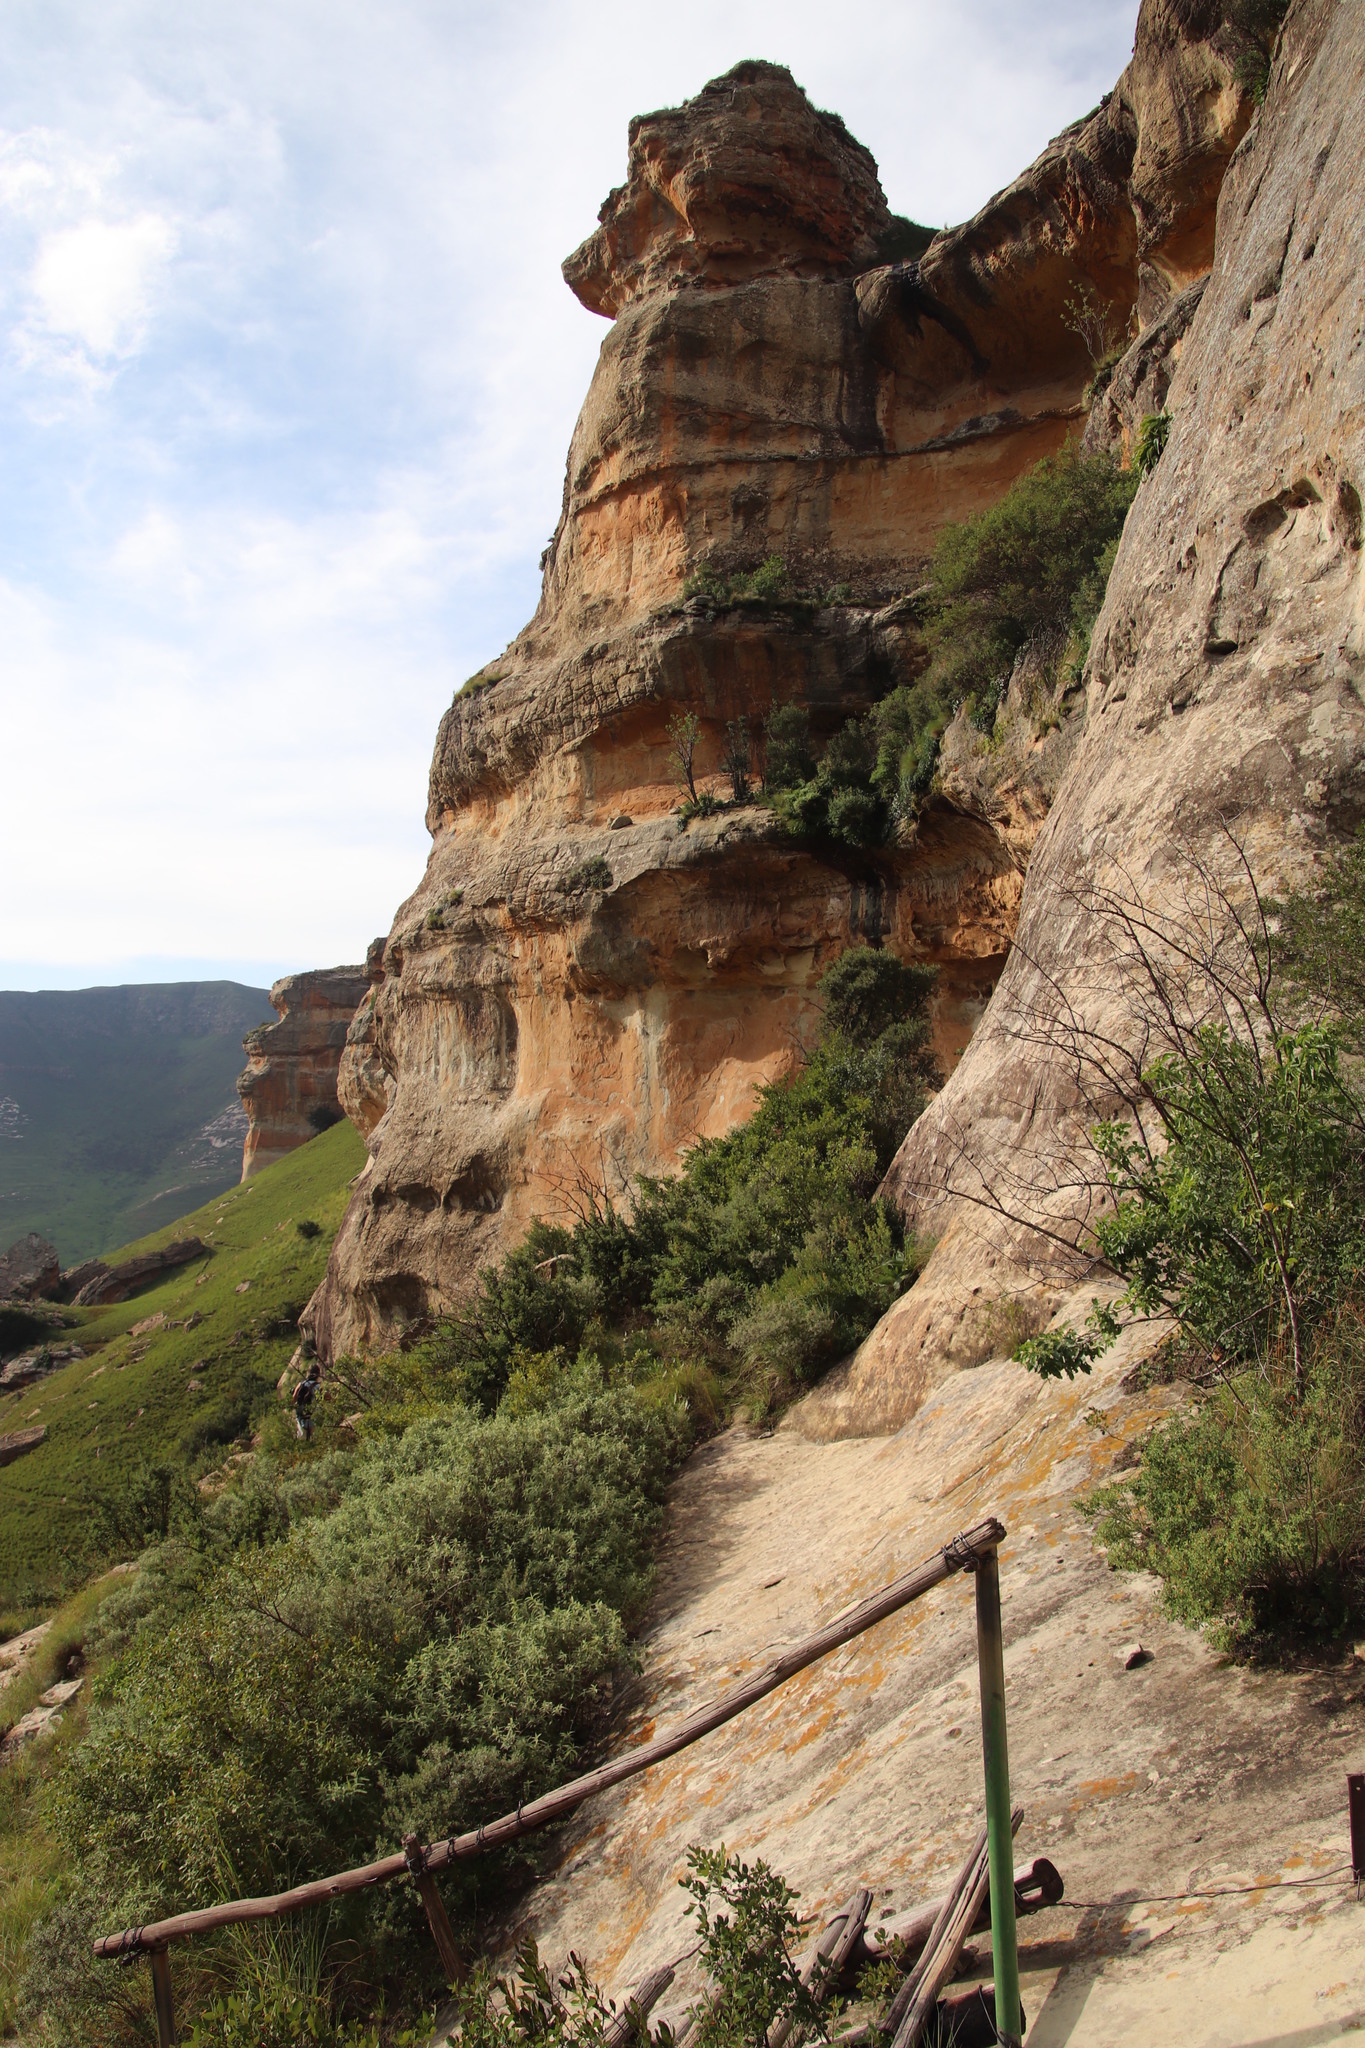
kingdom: Plantae
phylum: Tracheophyta
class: Magnoliopsida
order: Lamiales
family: Scrophulariaceae
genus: Buddleja
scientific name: Buddleja salviifolia
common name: Sagewood
